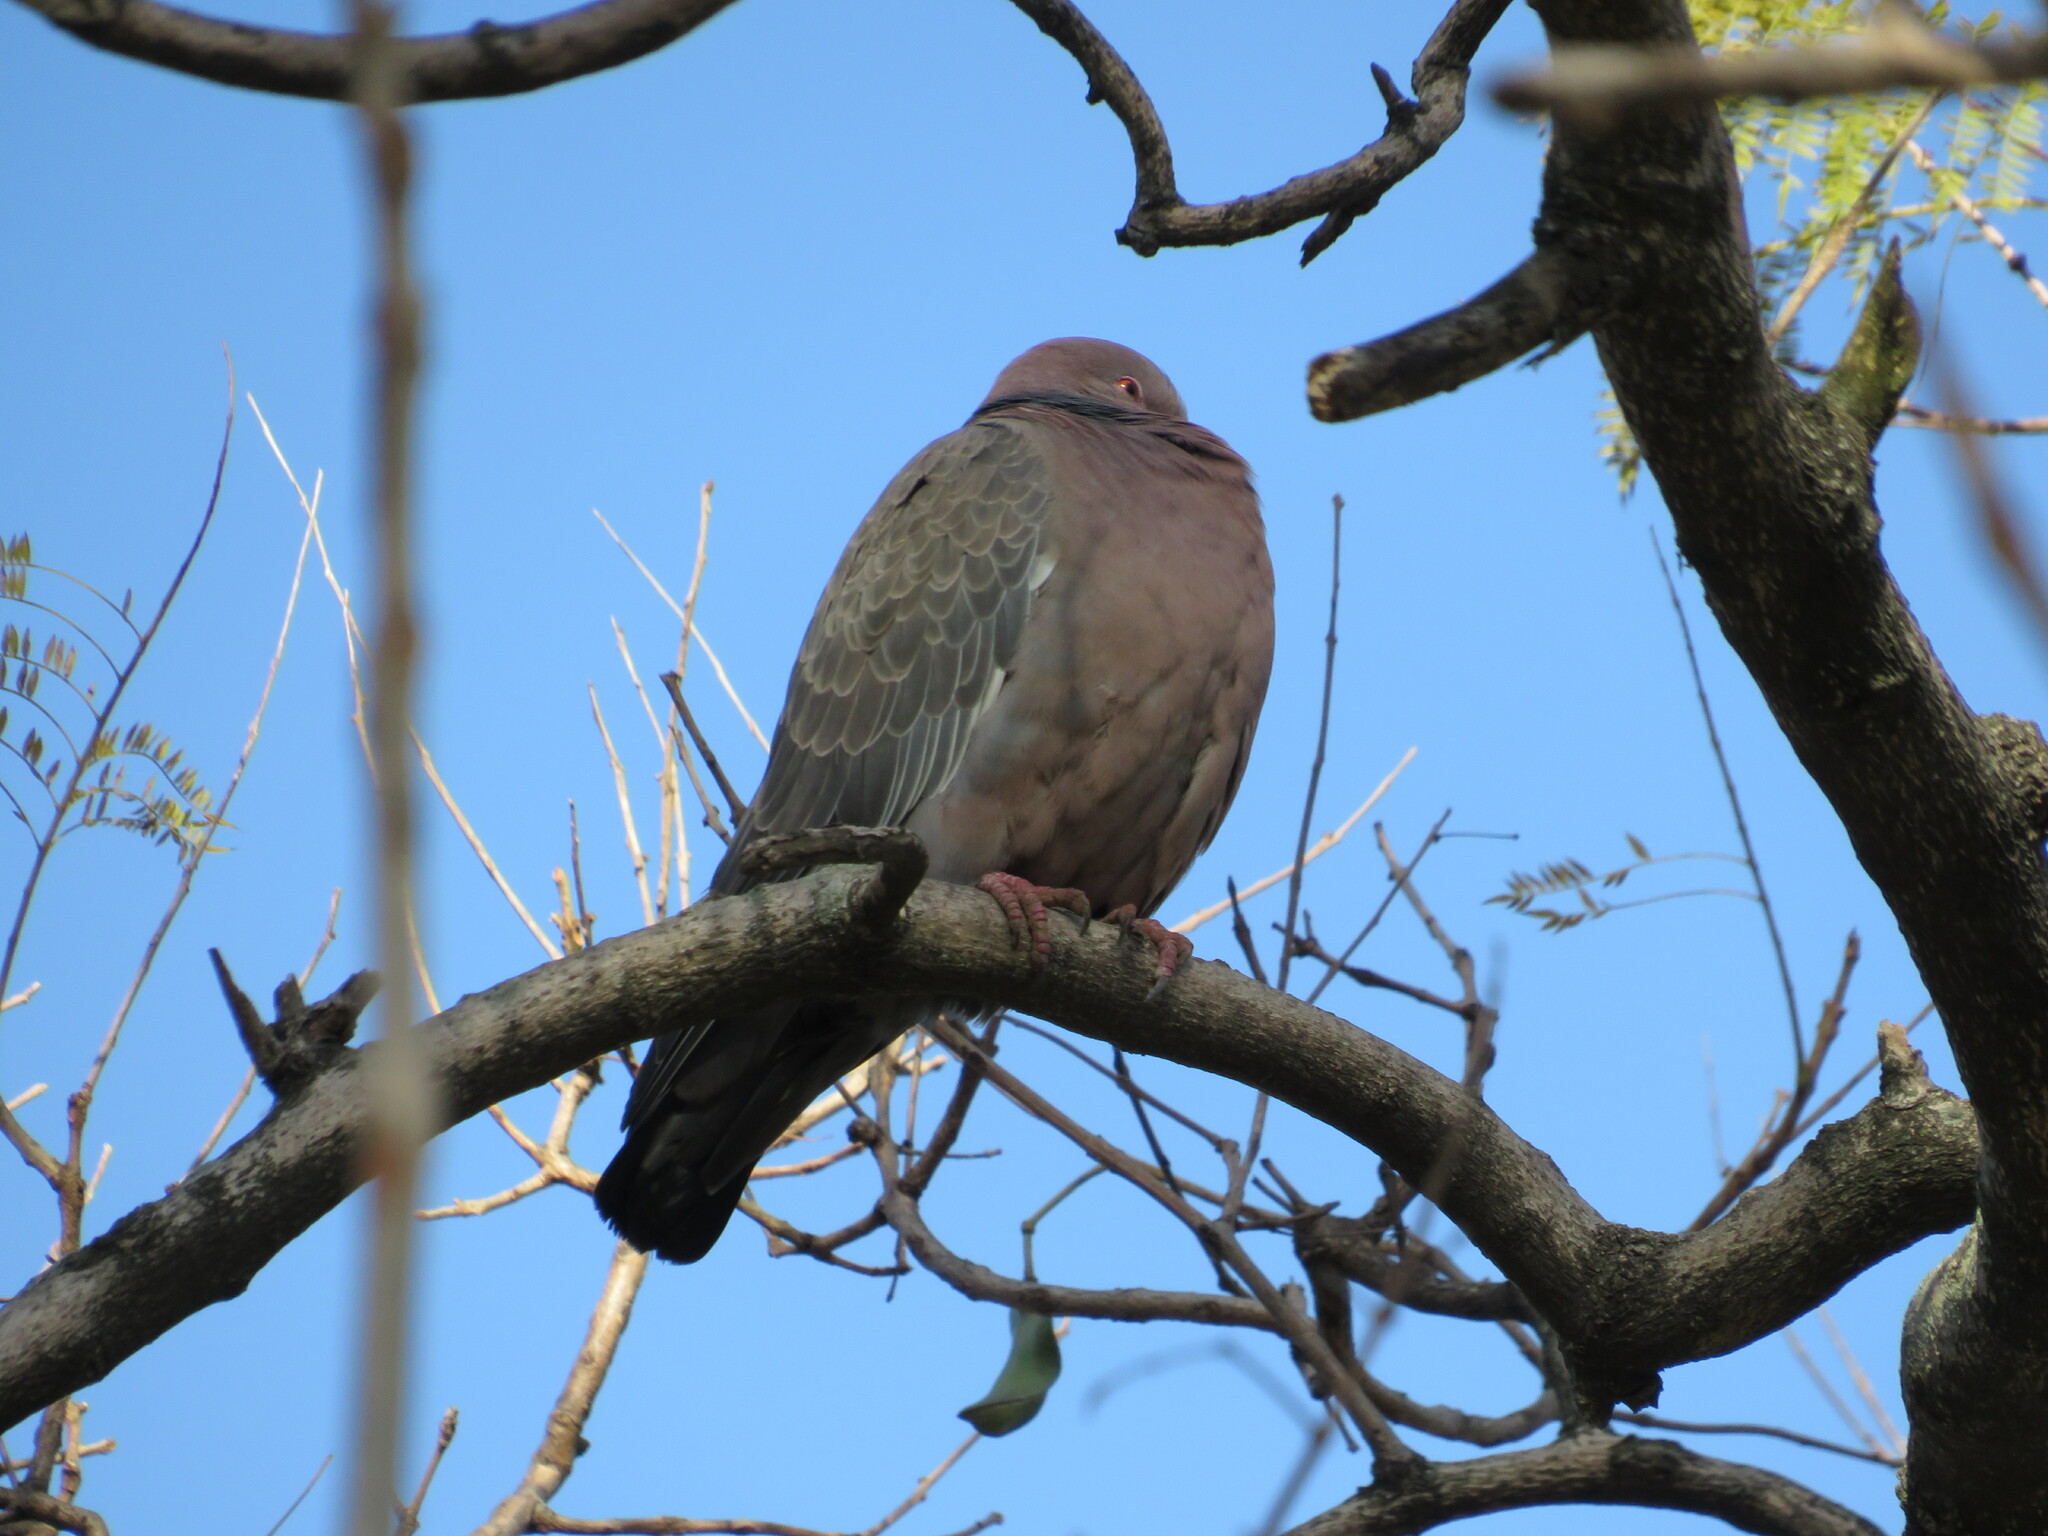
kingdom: Animalia
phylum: Chordata
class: Aves
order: Columbiformes
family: Columbidae
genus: Patagioenas
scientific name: Patagioenas picazuro
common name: Picazuro pigeon
